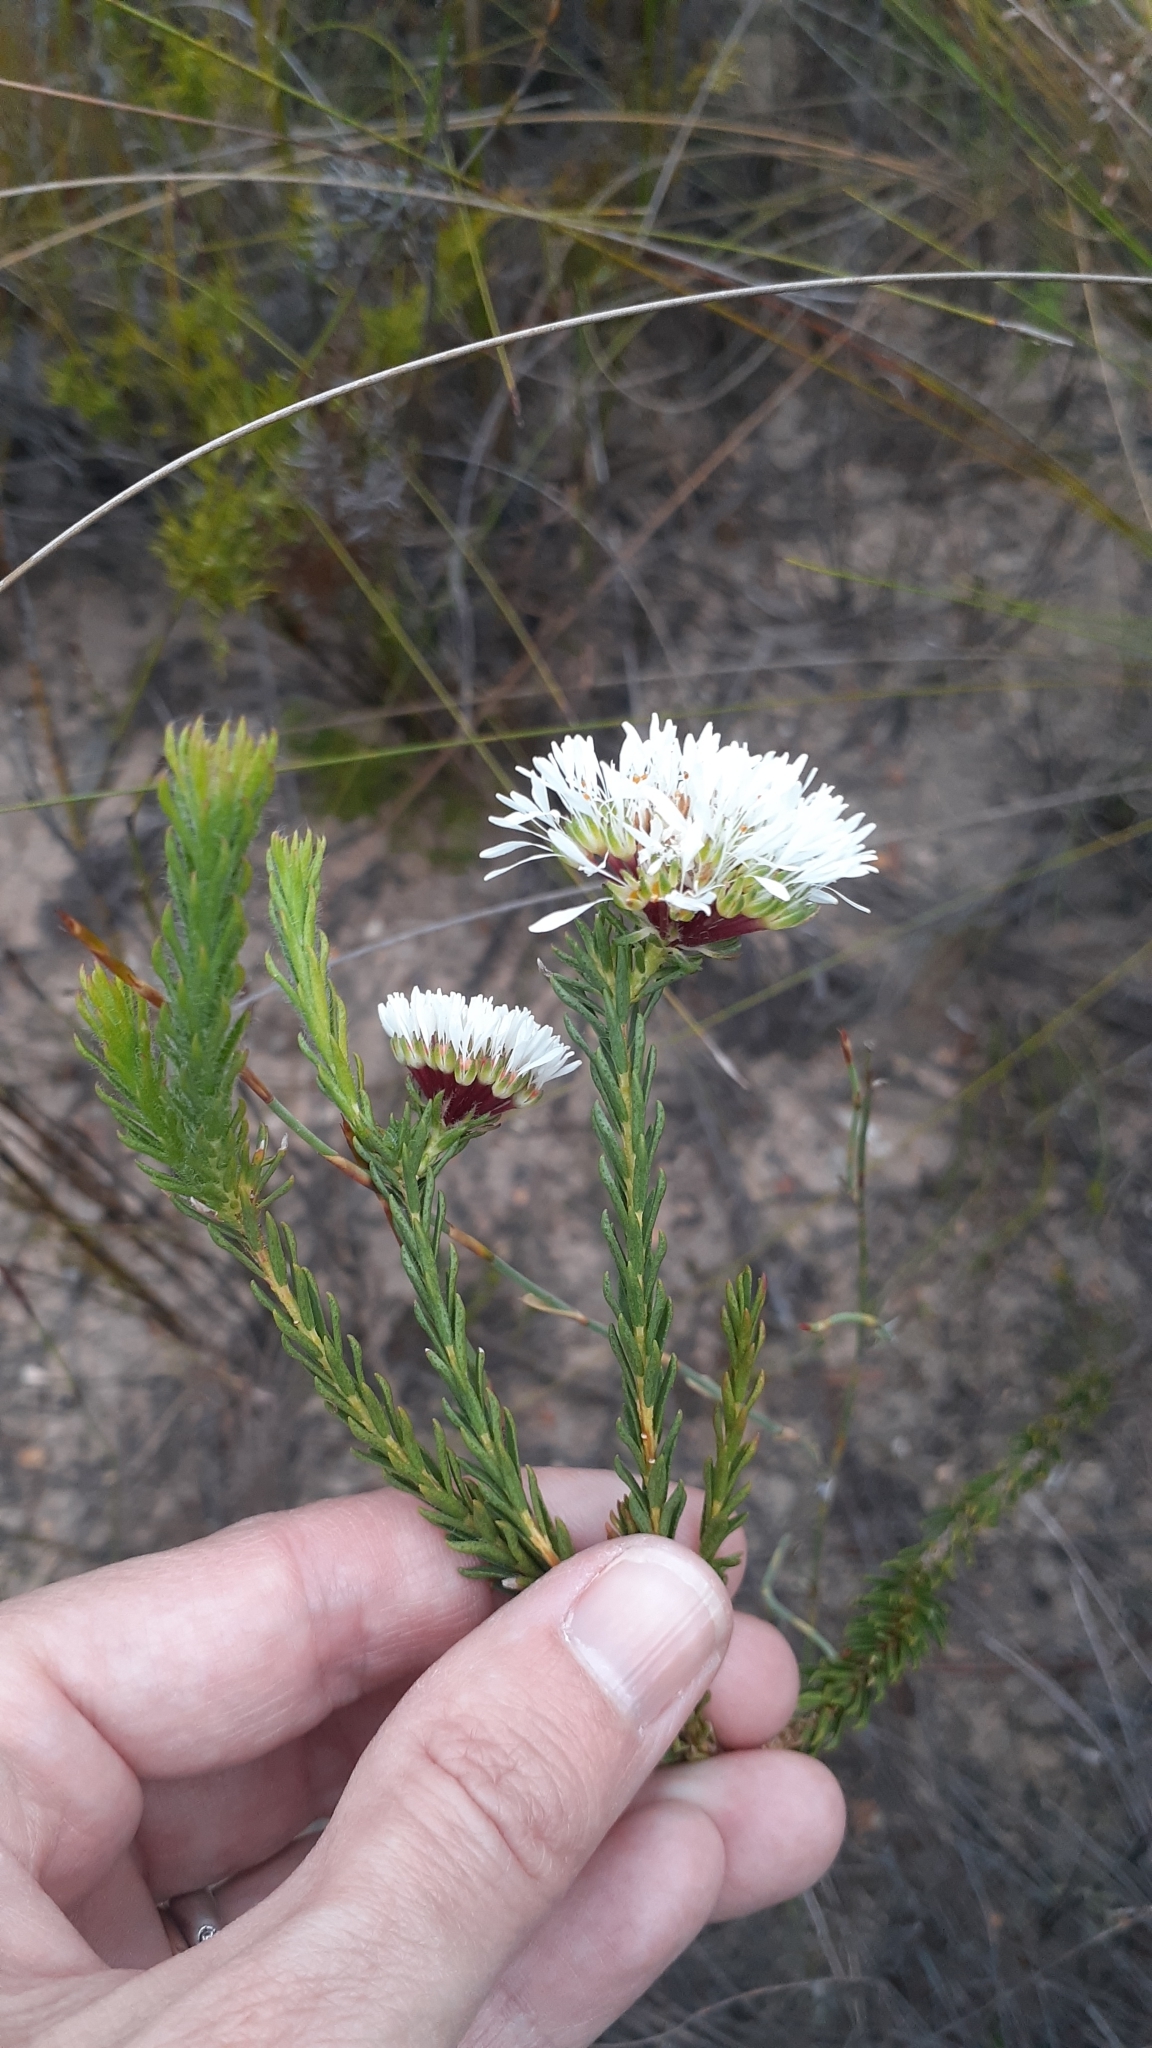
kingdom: Plantae
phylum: Tracheophyta
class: Magnoliopsida
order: Sapindales
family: Rutaceae
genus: Agathosma
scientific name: Agathosma bifida
